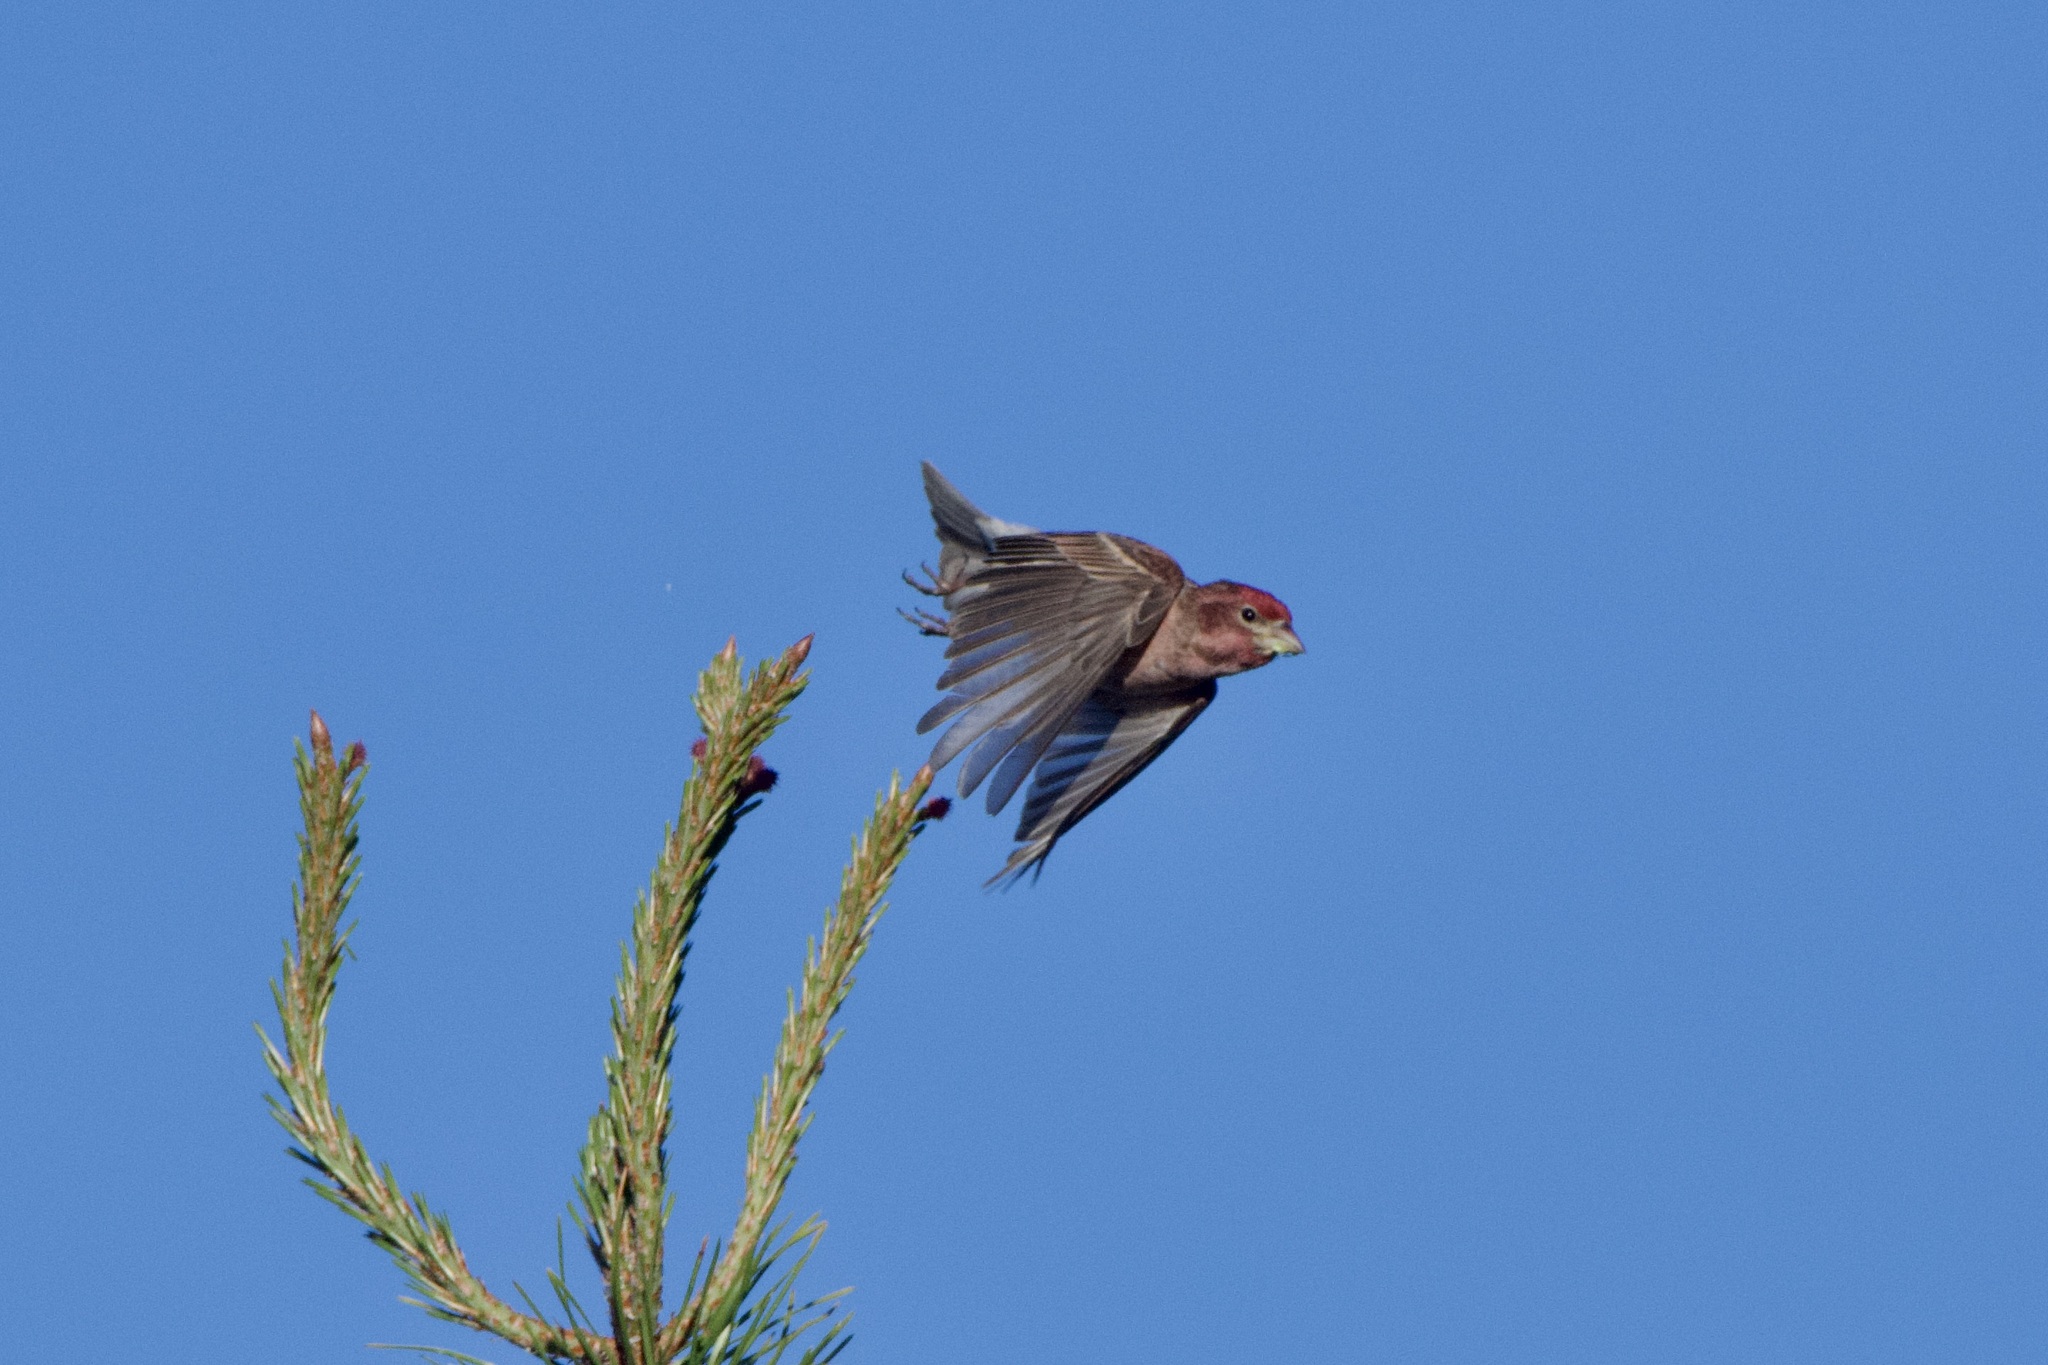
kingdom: Animalia
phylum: Chordata
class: Aves
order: Passeriformes
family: Fringillidae
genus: Haemorhous
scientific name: Haemorhous purpureus
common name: Purple finch
